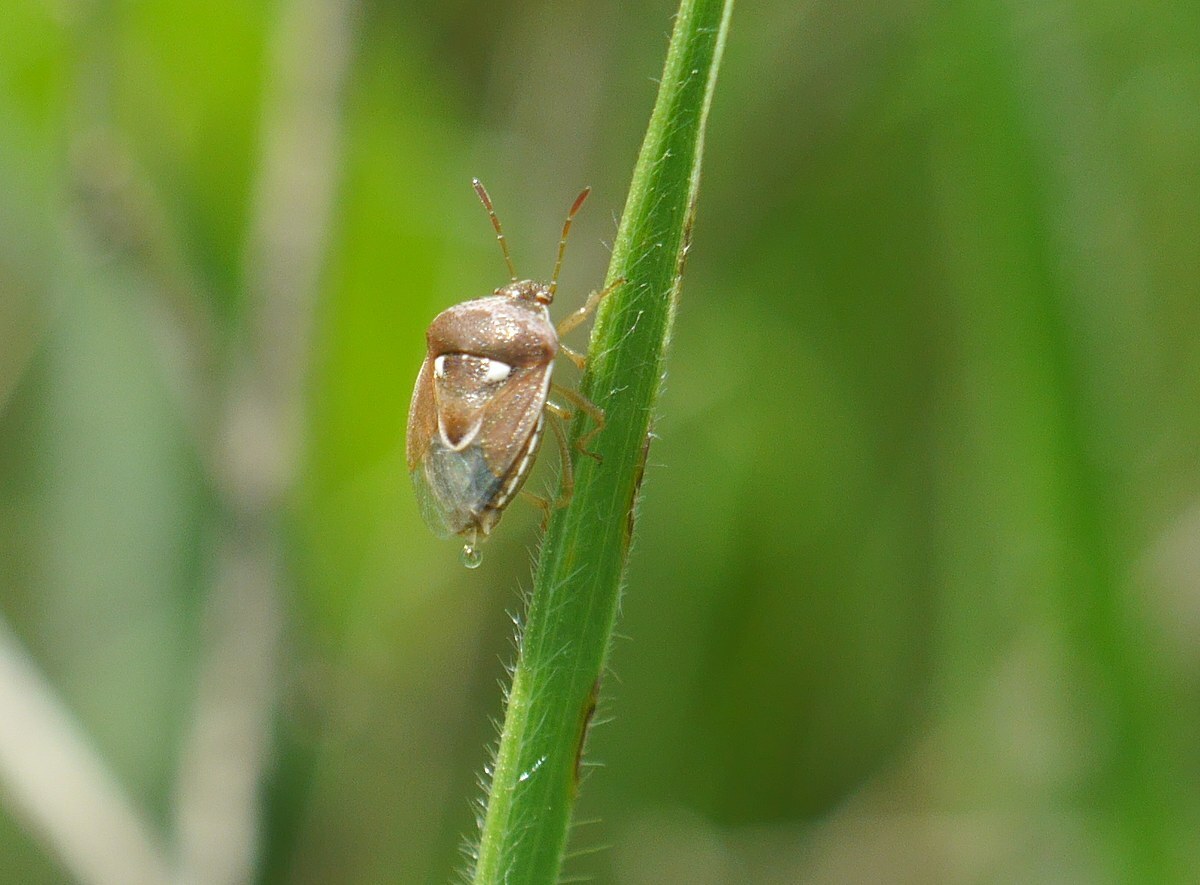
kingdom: Animalia
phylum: Arthropoda
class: Insecta
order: Hemiptera
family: Pentatomidae
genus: Stagonomus
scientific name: Stagonomus bipunctatus
